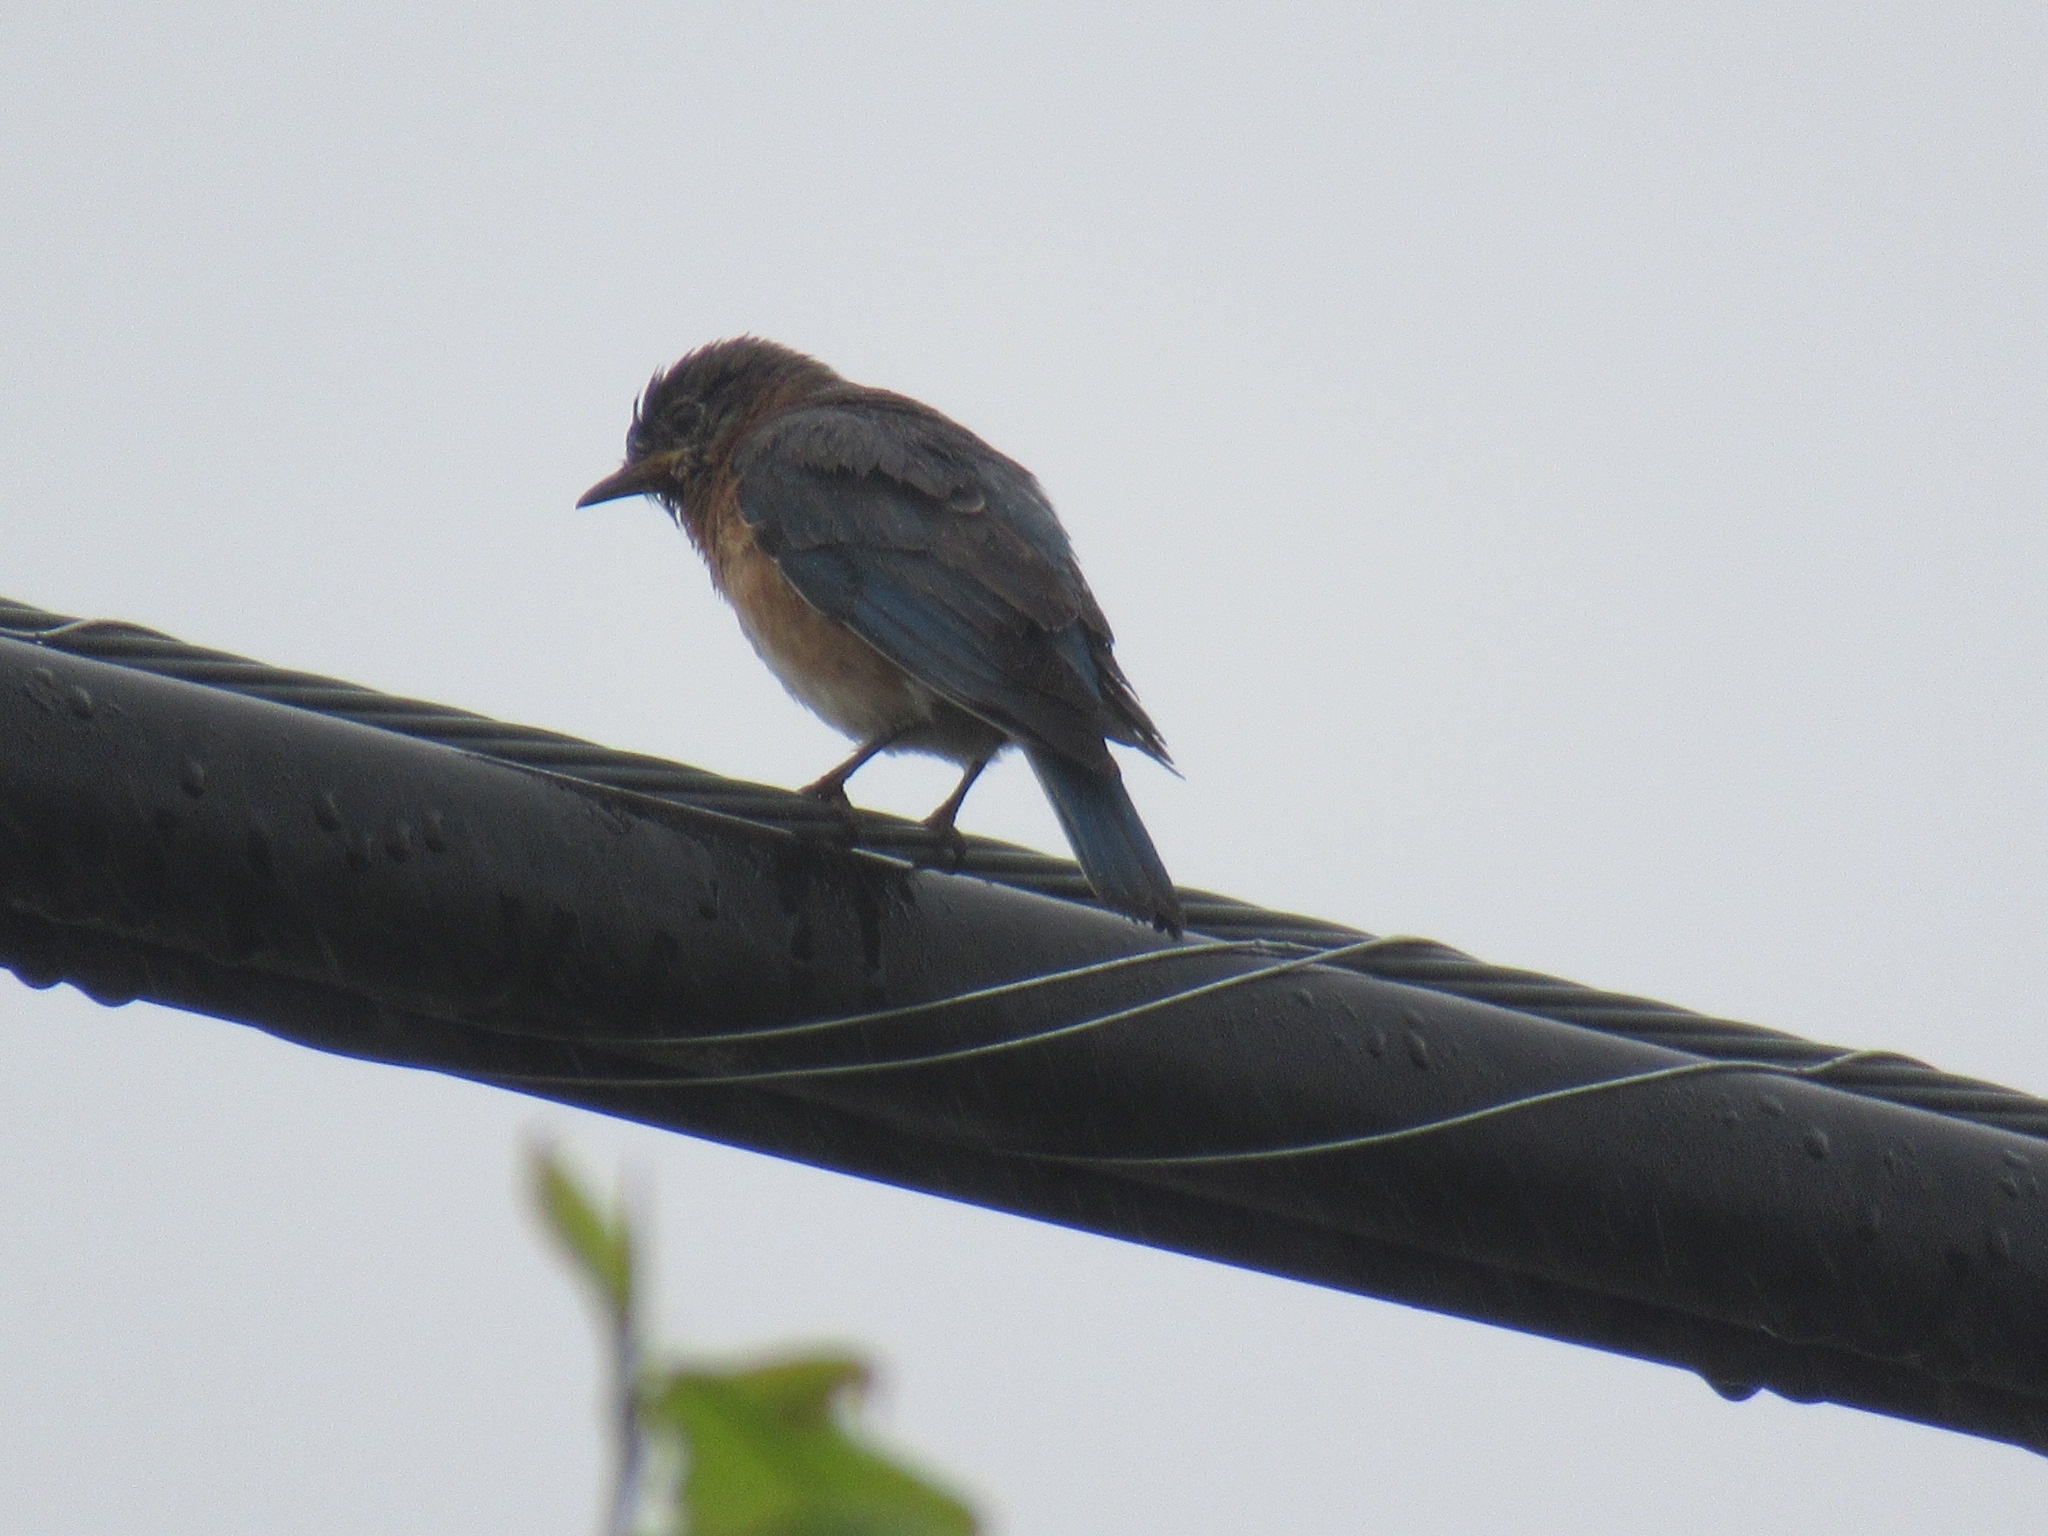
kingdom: Animalia
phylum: Chordata
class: Aves
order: Passeriformes
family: Turdidae
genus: Sialia
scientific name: Sialia sialis
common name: Eastern bluebird
